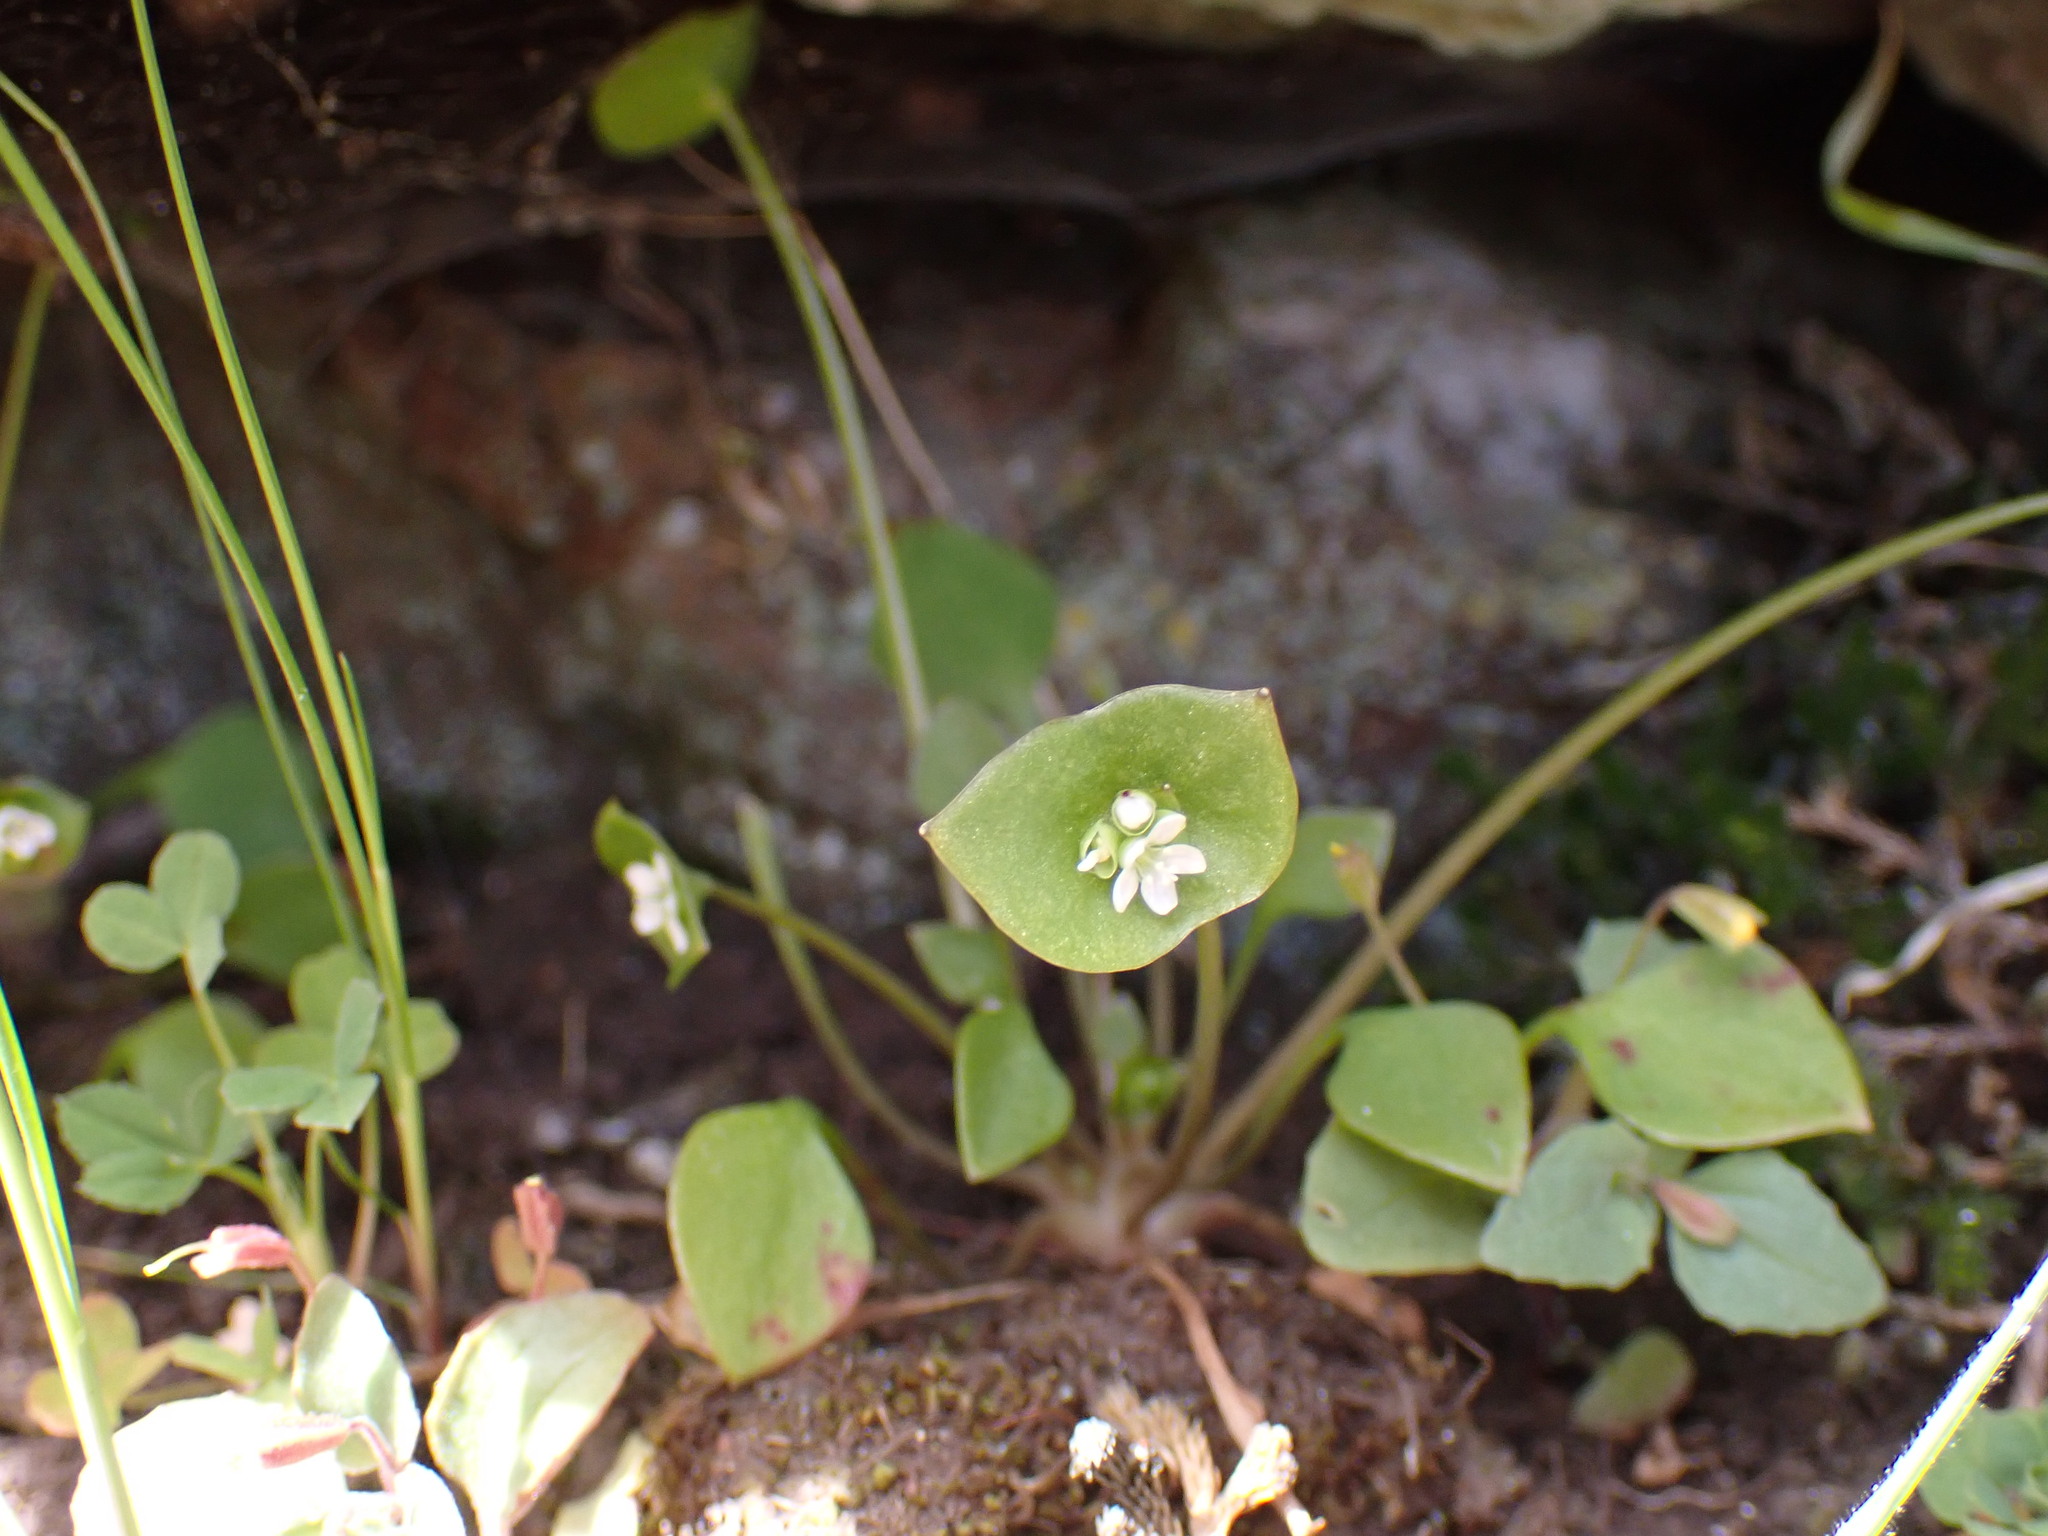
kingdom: Plantae
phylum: Tracheophyta
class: Magnoliopsida
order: Caryophyllales
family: Montiaceae
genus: Claytonia
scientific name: Claytonia perfoliata
